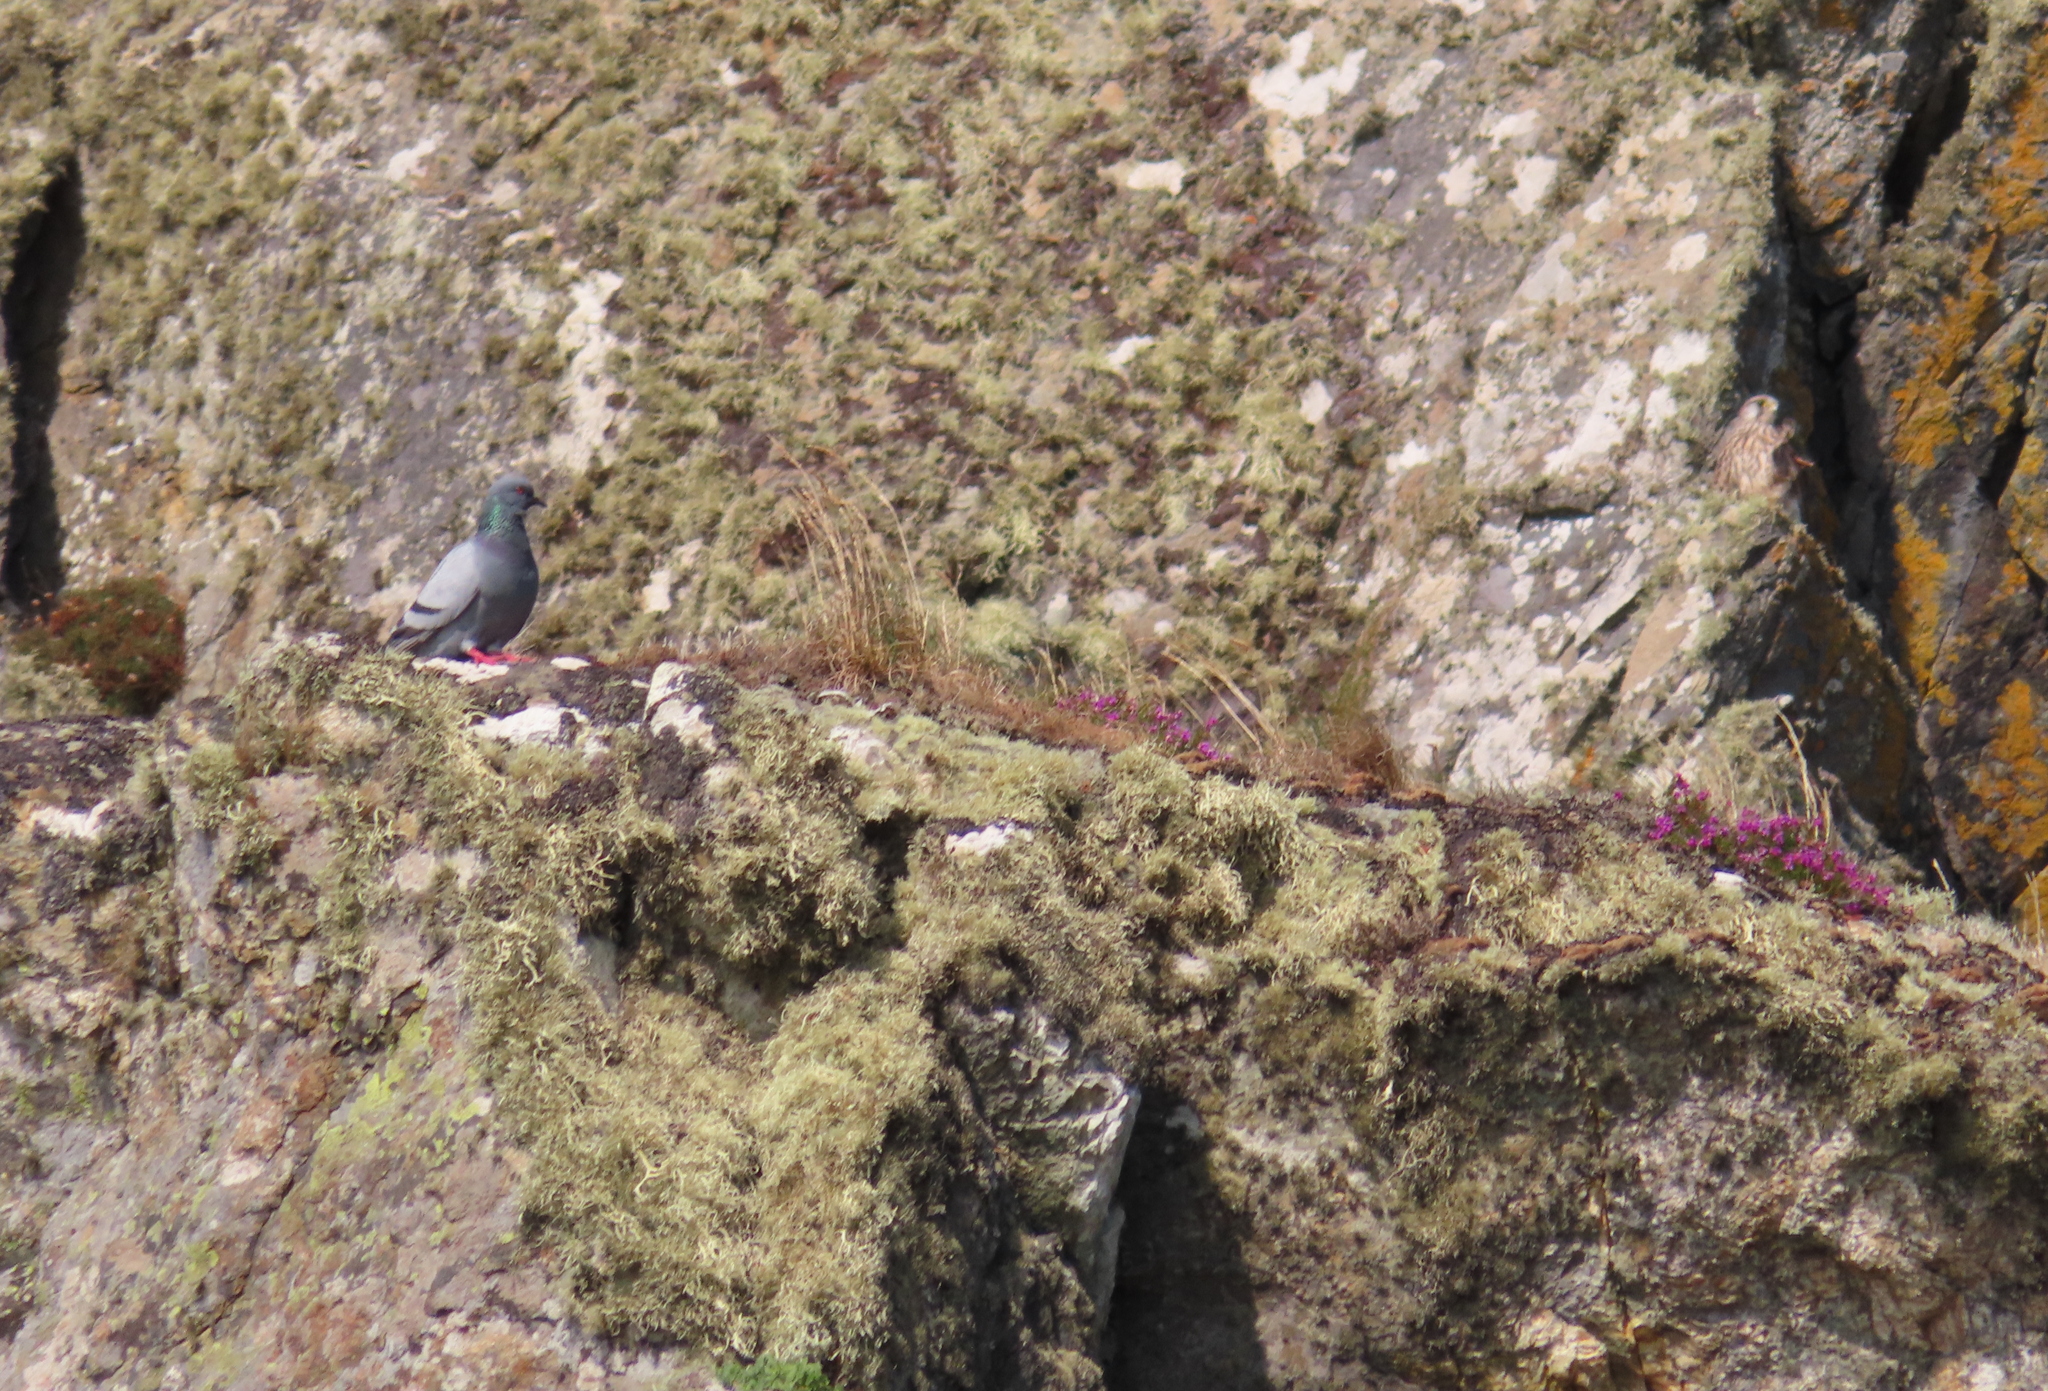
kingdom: Animalia
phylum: Chordata
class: Aves
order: Columbiformes
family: Columbidae
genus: Columba
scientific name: Columba livia
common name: Rock pigeon
